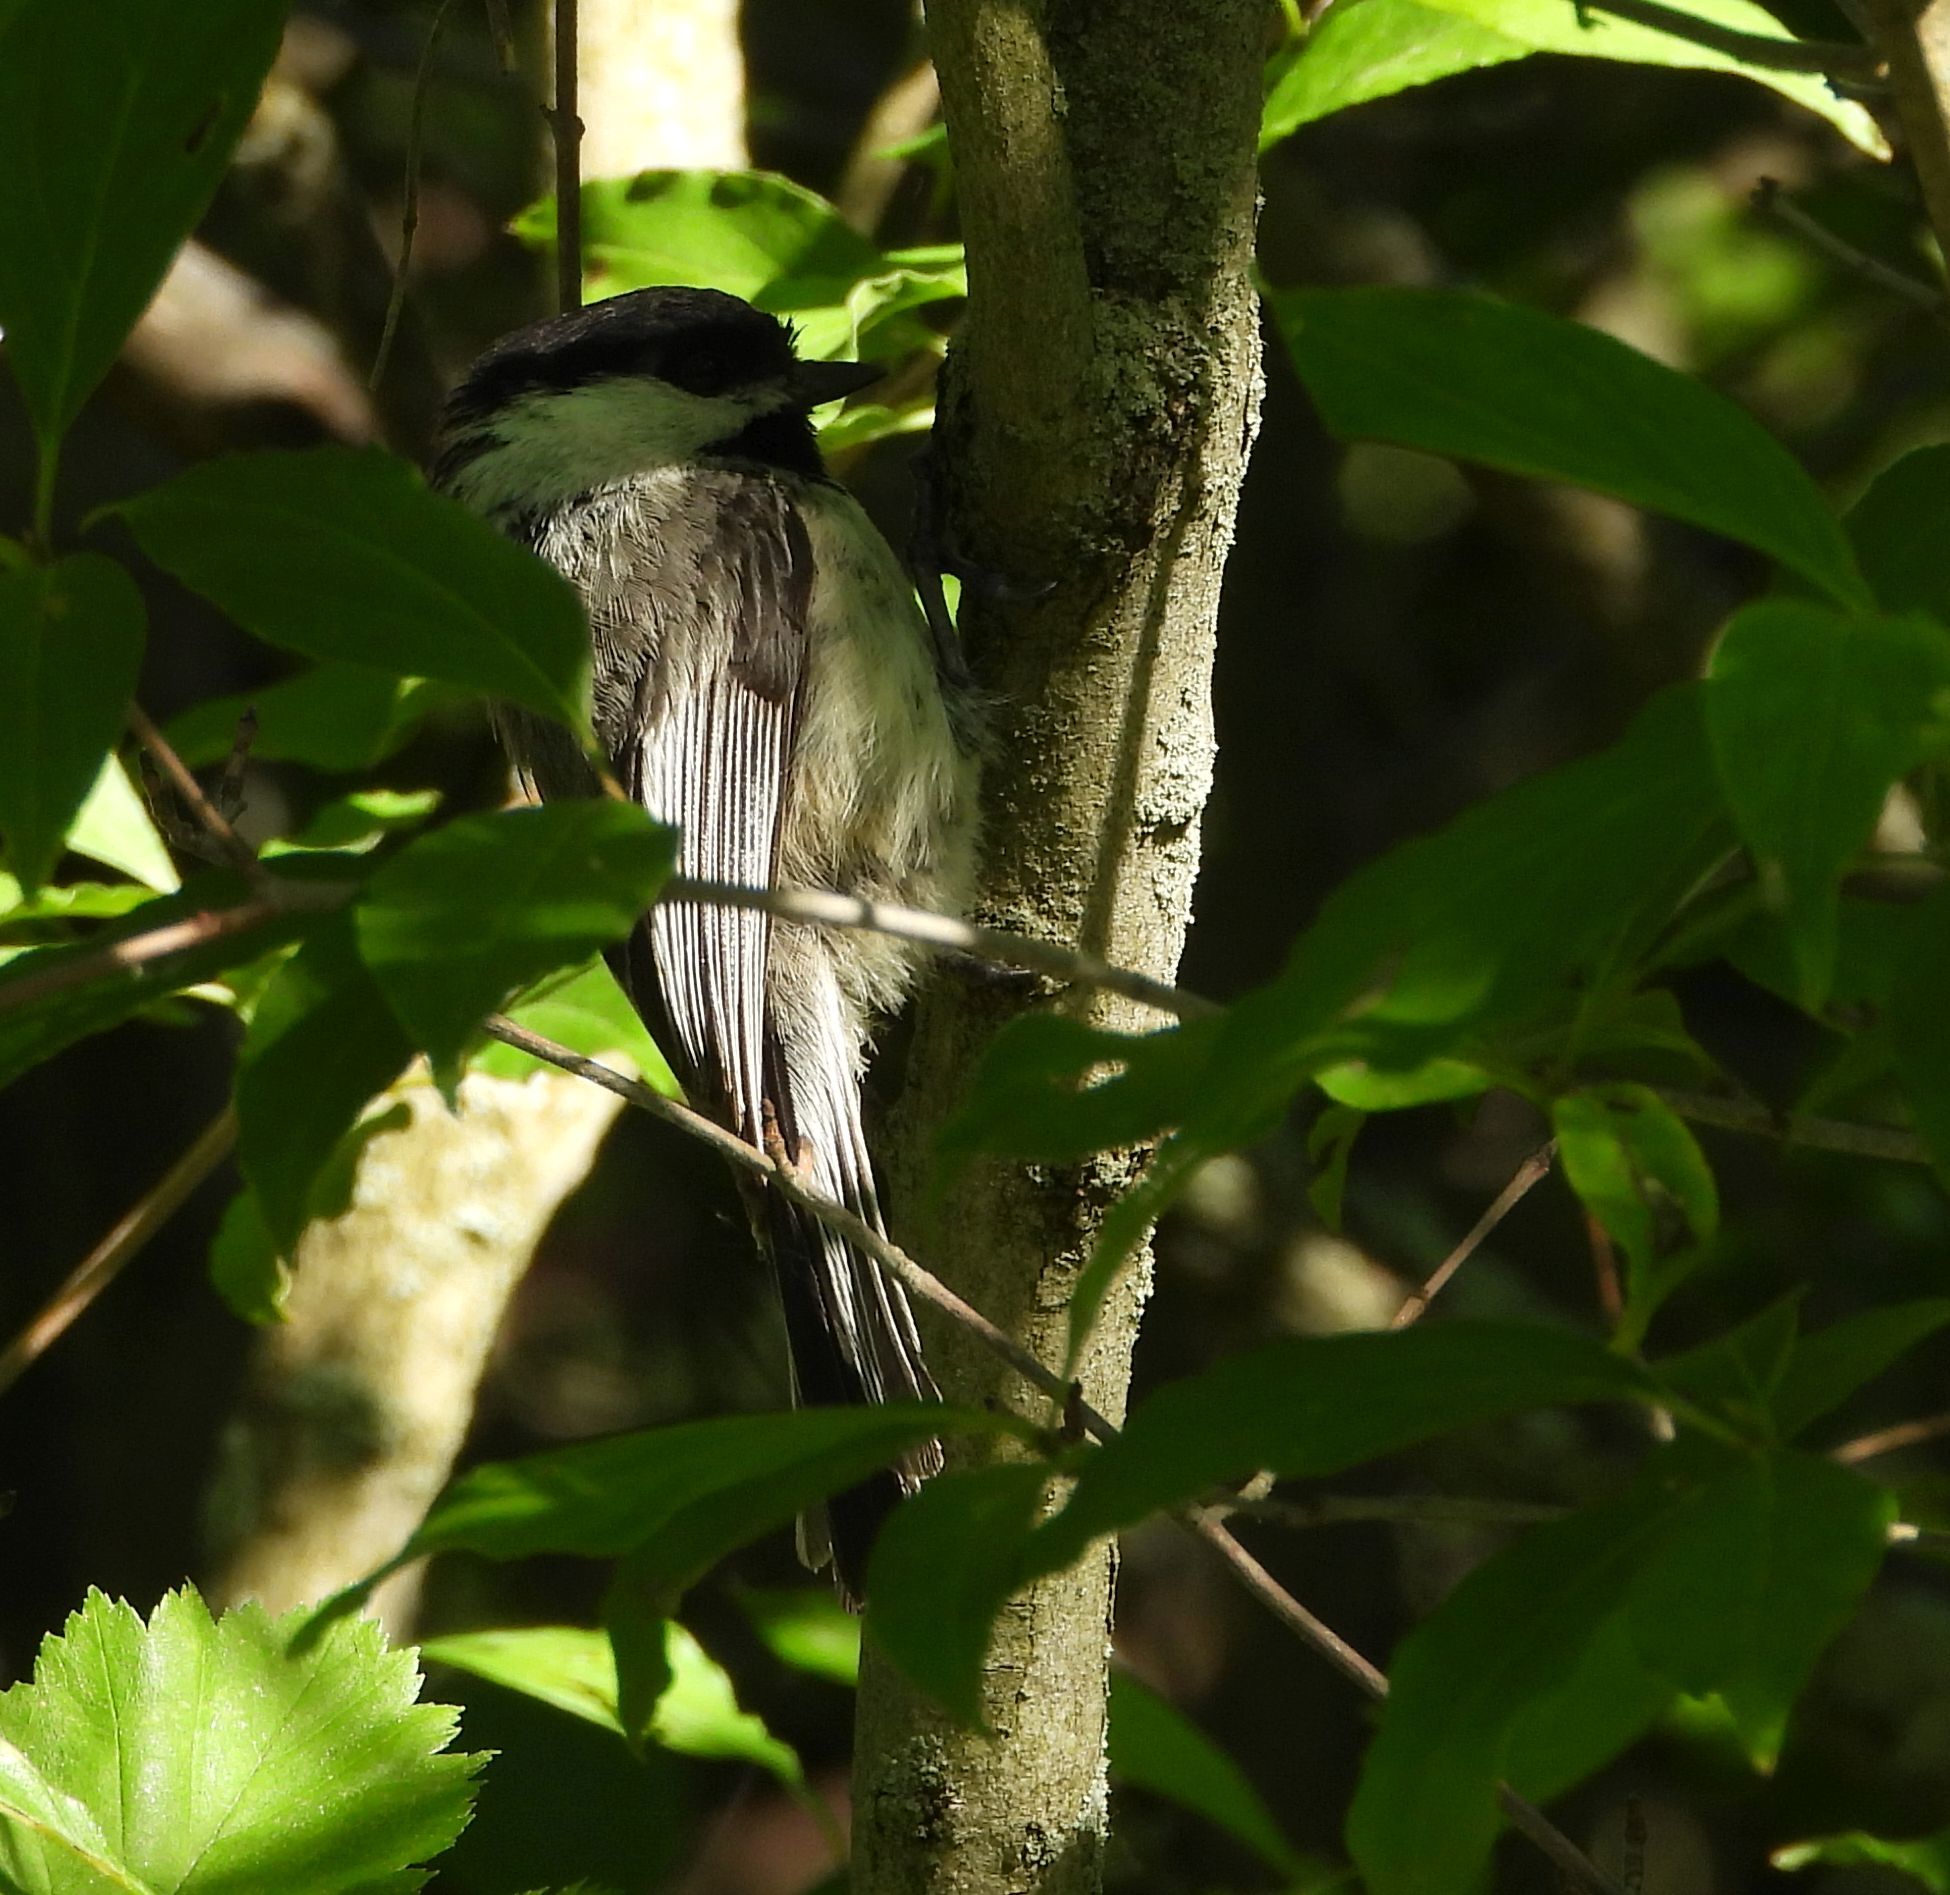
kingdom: Animalia
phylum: Chordata
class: Aves
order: Passeriformes
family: Paridae
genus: Poecile
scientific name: Poecile atricapillus
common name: Black-capped chickadee
